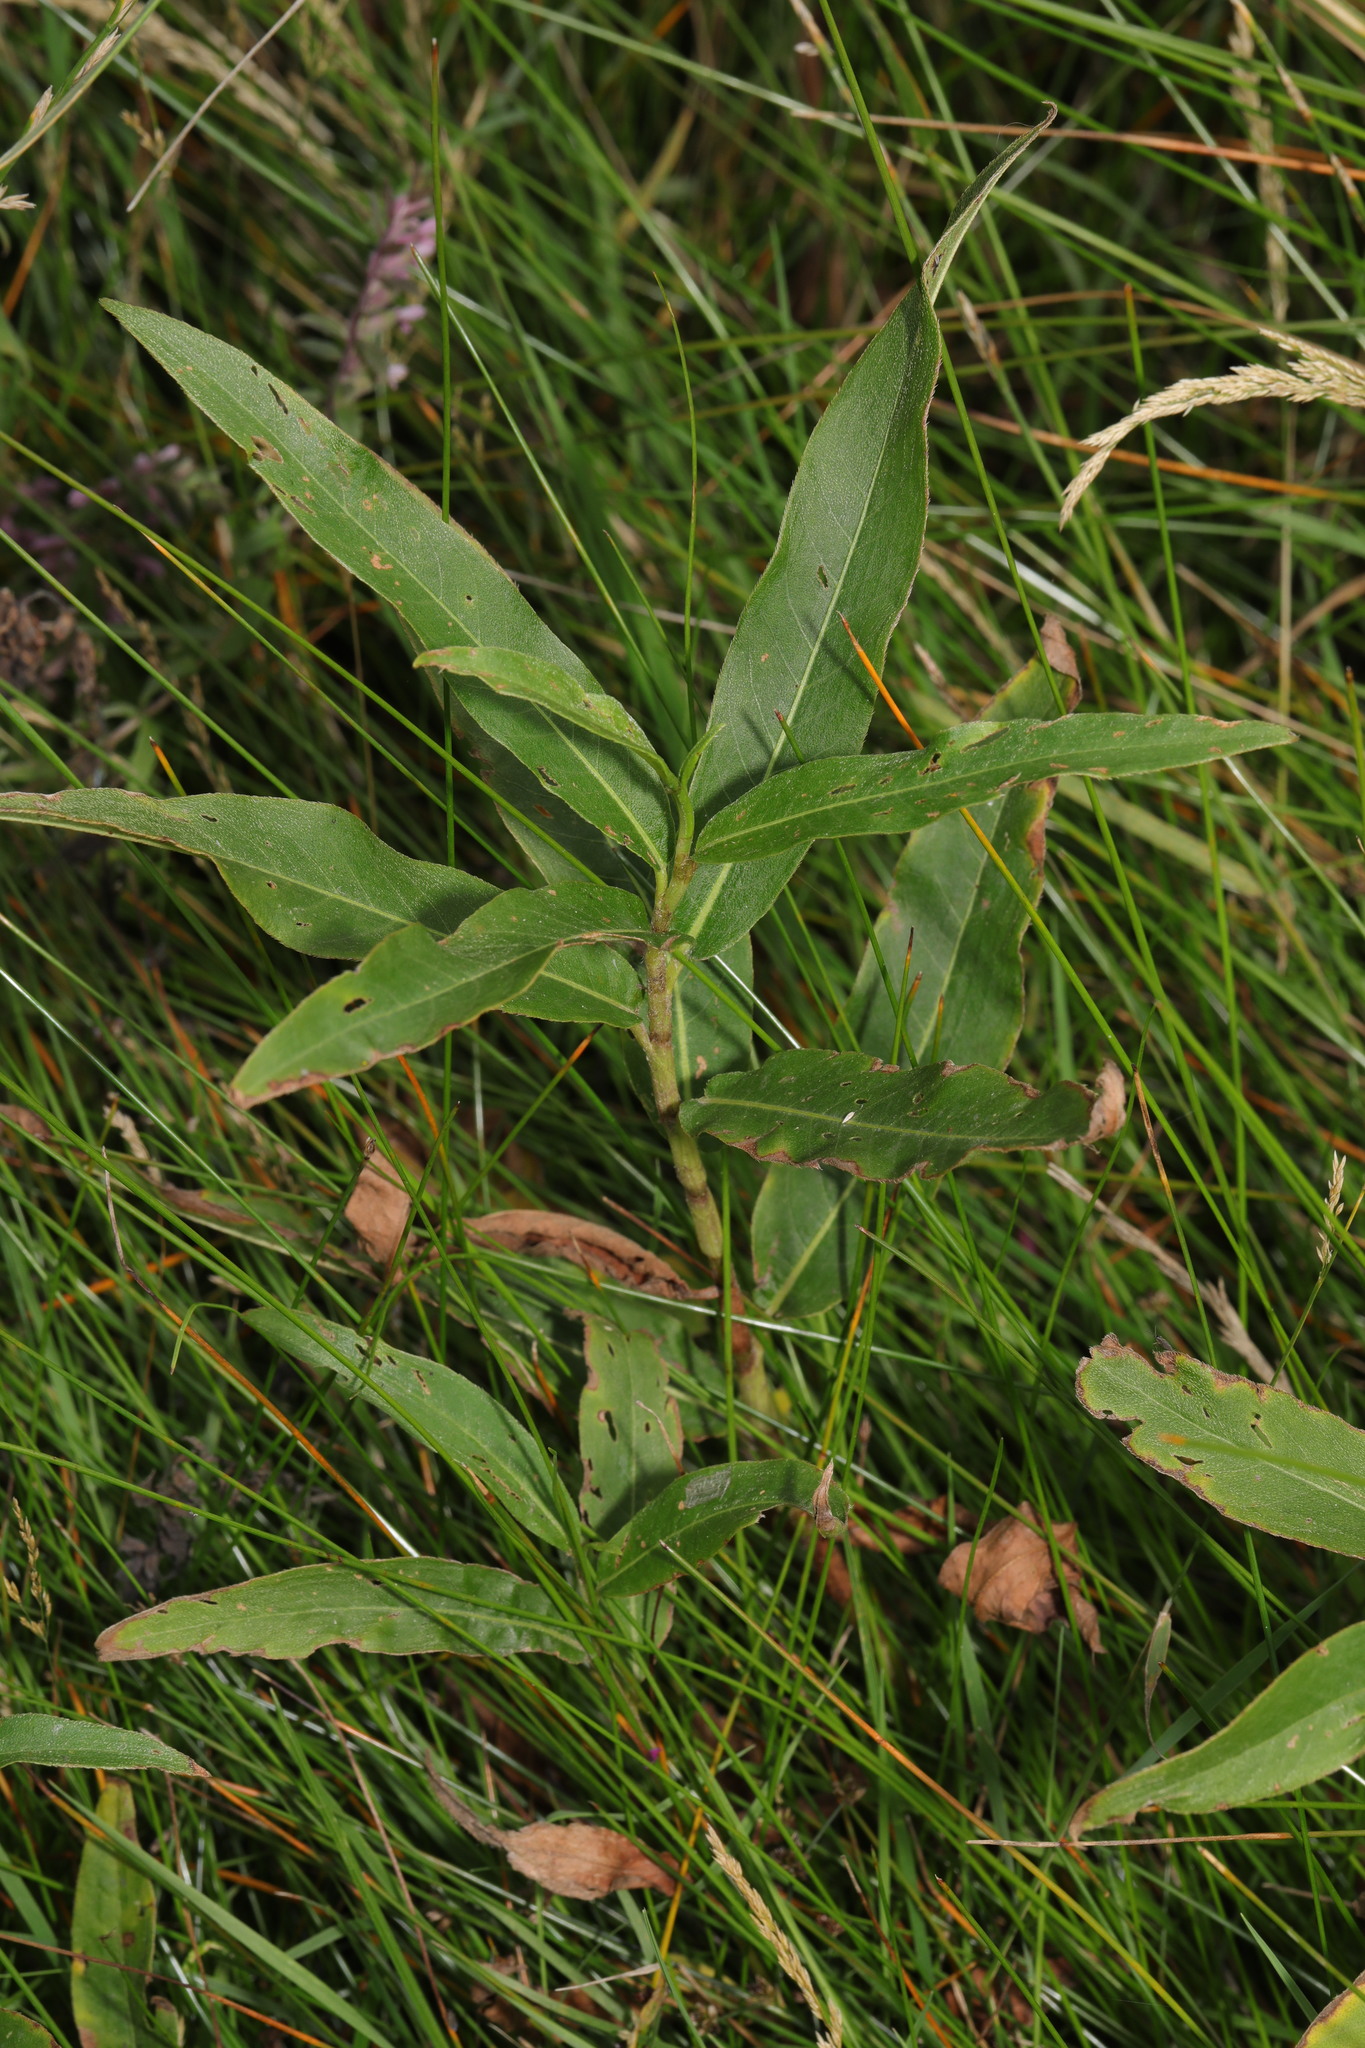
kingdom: Plantae
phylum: Tracheophyta
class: Magnoliopsida
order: Caryophyllales
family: Polygonaceae
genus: Persicaria
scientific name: Persicaria amphibia
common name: Amphibious bistort
